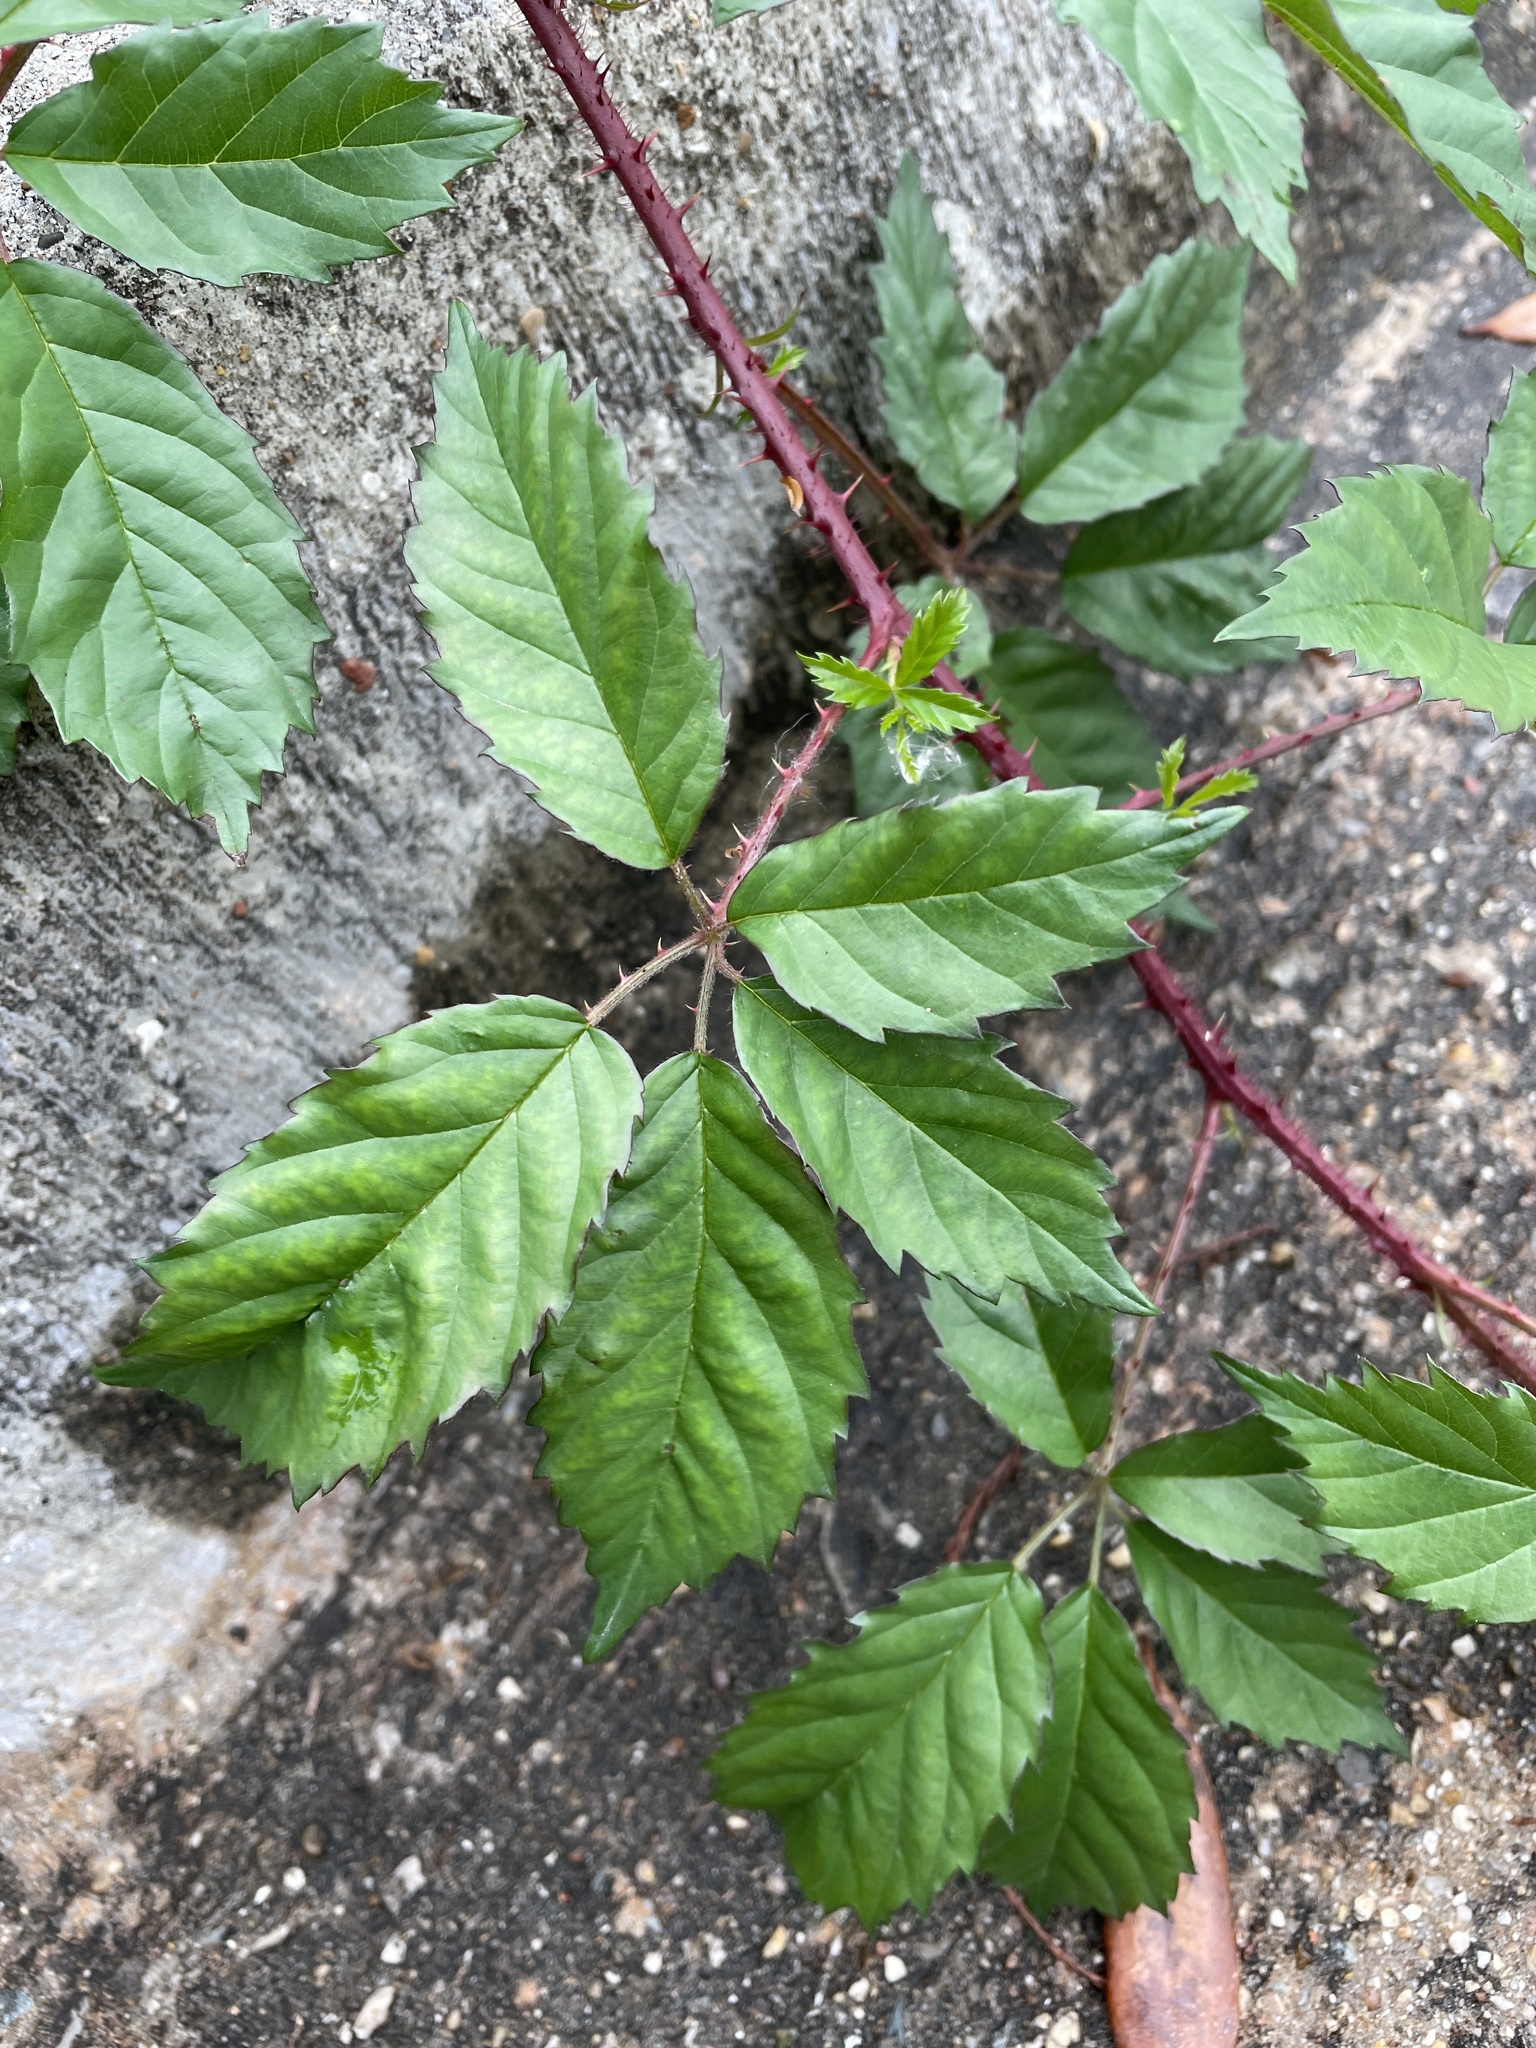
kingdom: Plantae
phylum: Tracheophyta
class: Magnoliopsida
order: Rosales
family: Rosaceae
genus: Rubus
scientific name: Rubus trivialis
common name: Southern dewberry
